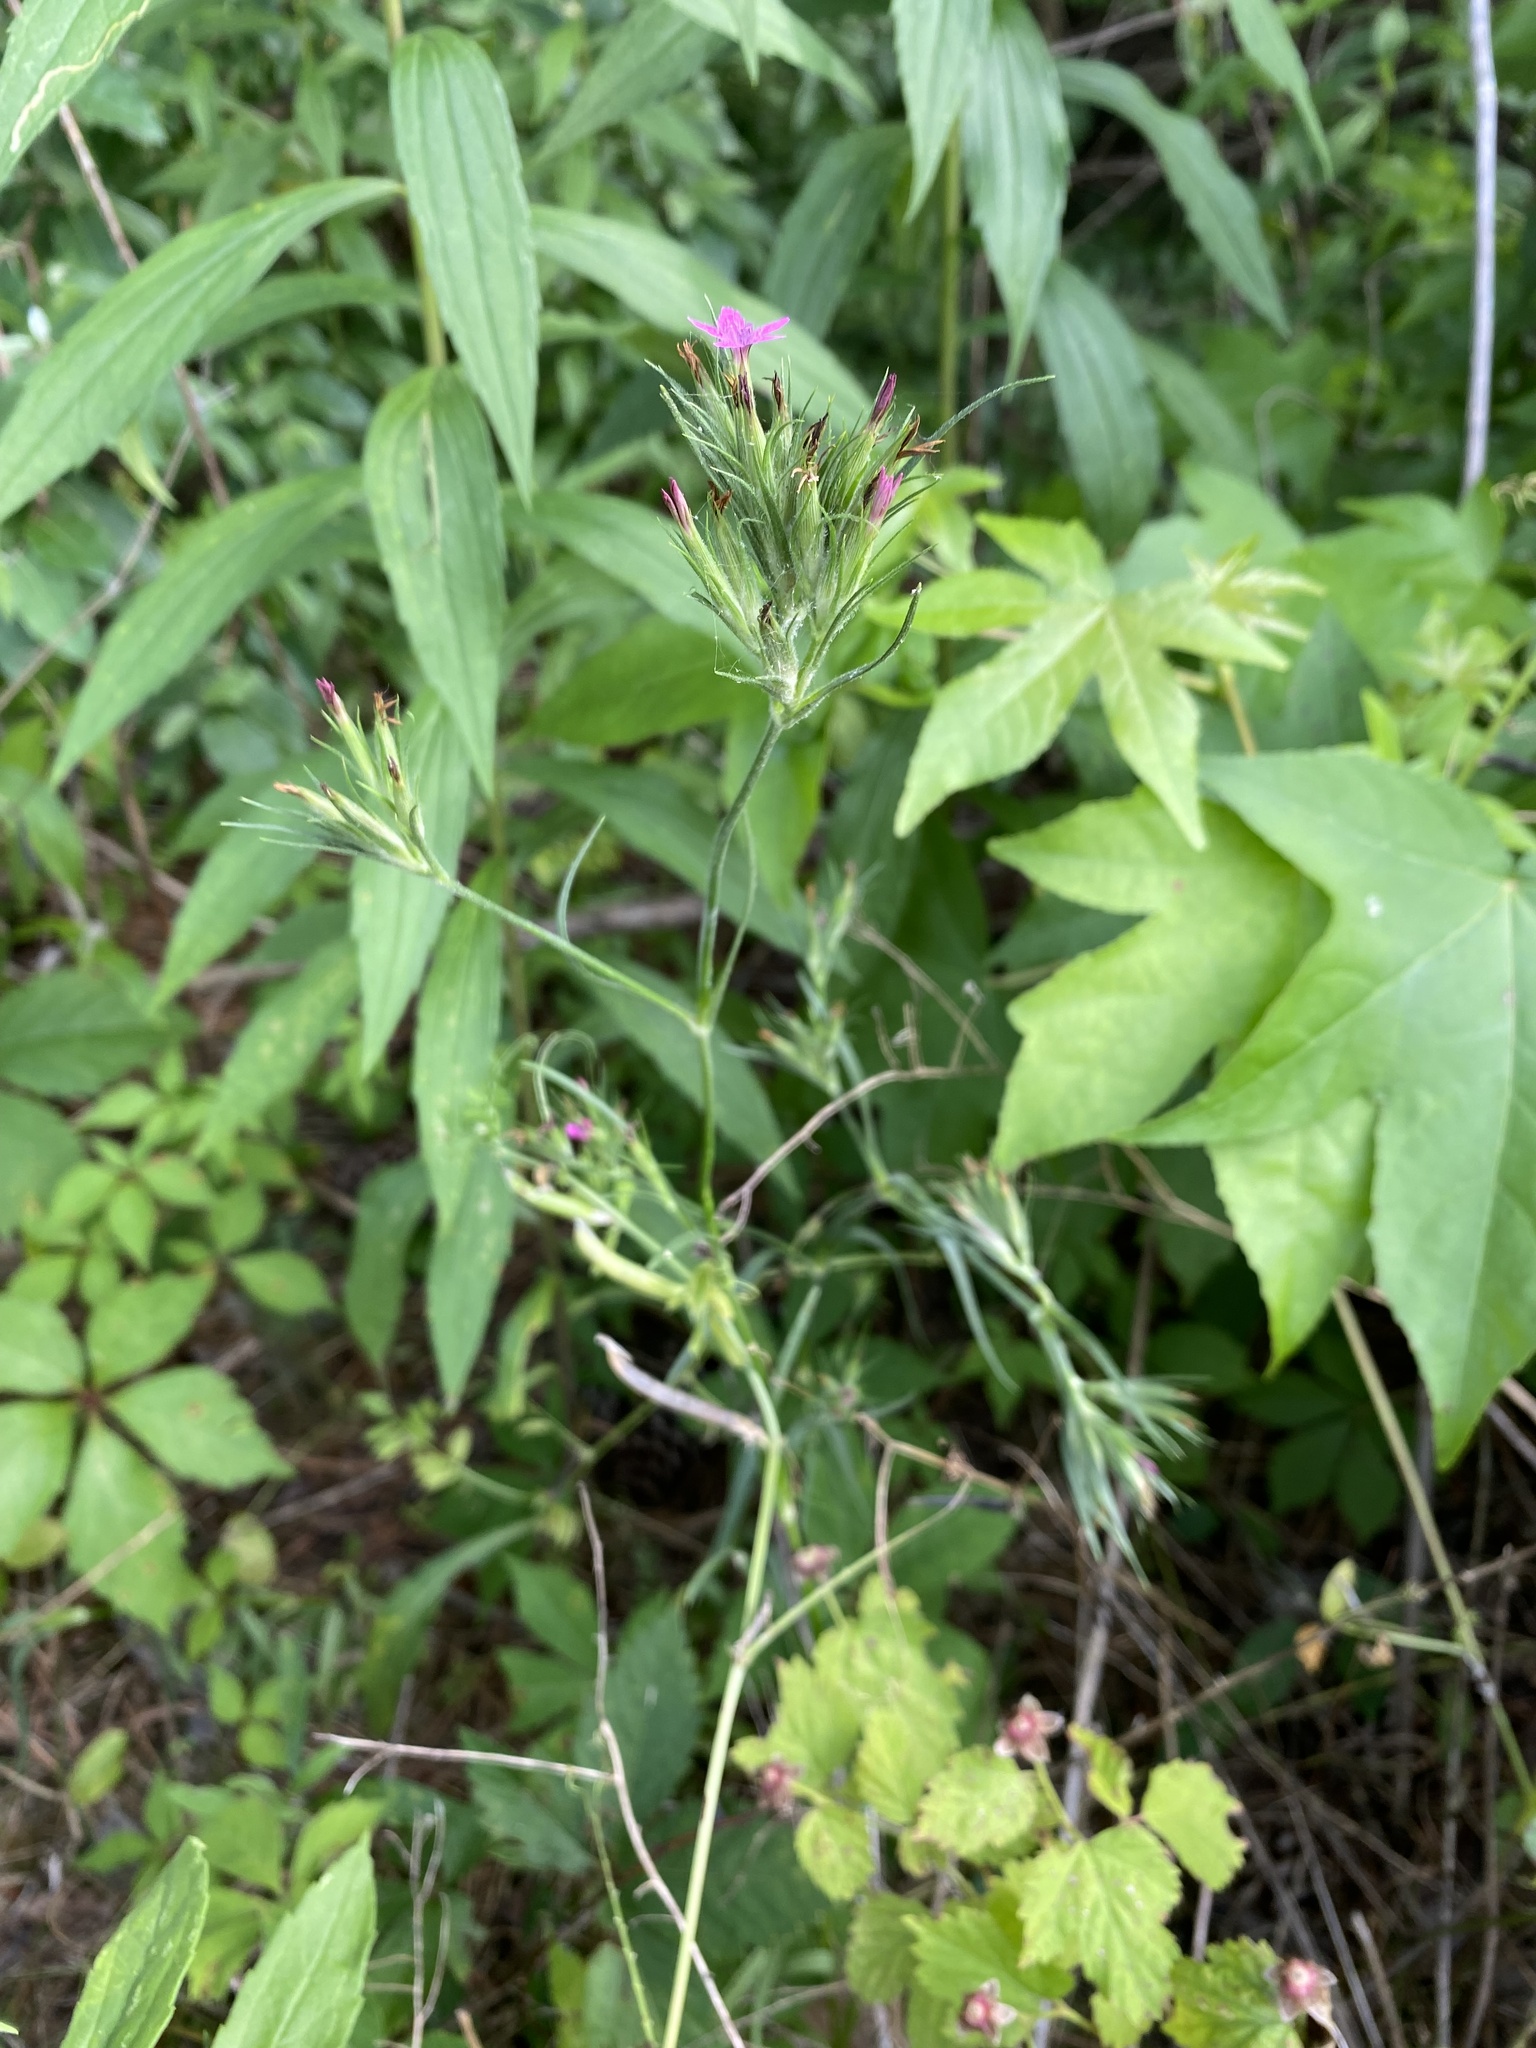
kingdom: Plantae
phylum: Tracheophyta
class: Magnoliopsida
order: Caryophyllales
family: Caryophyllaceae
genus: Dianthus
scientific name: Dianthus armeria
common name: Deptford pink
